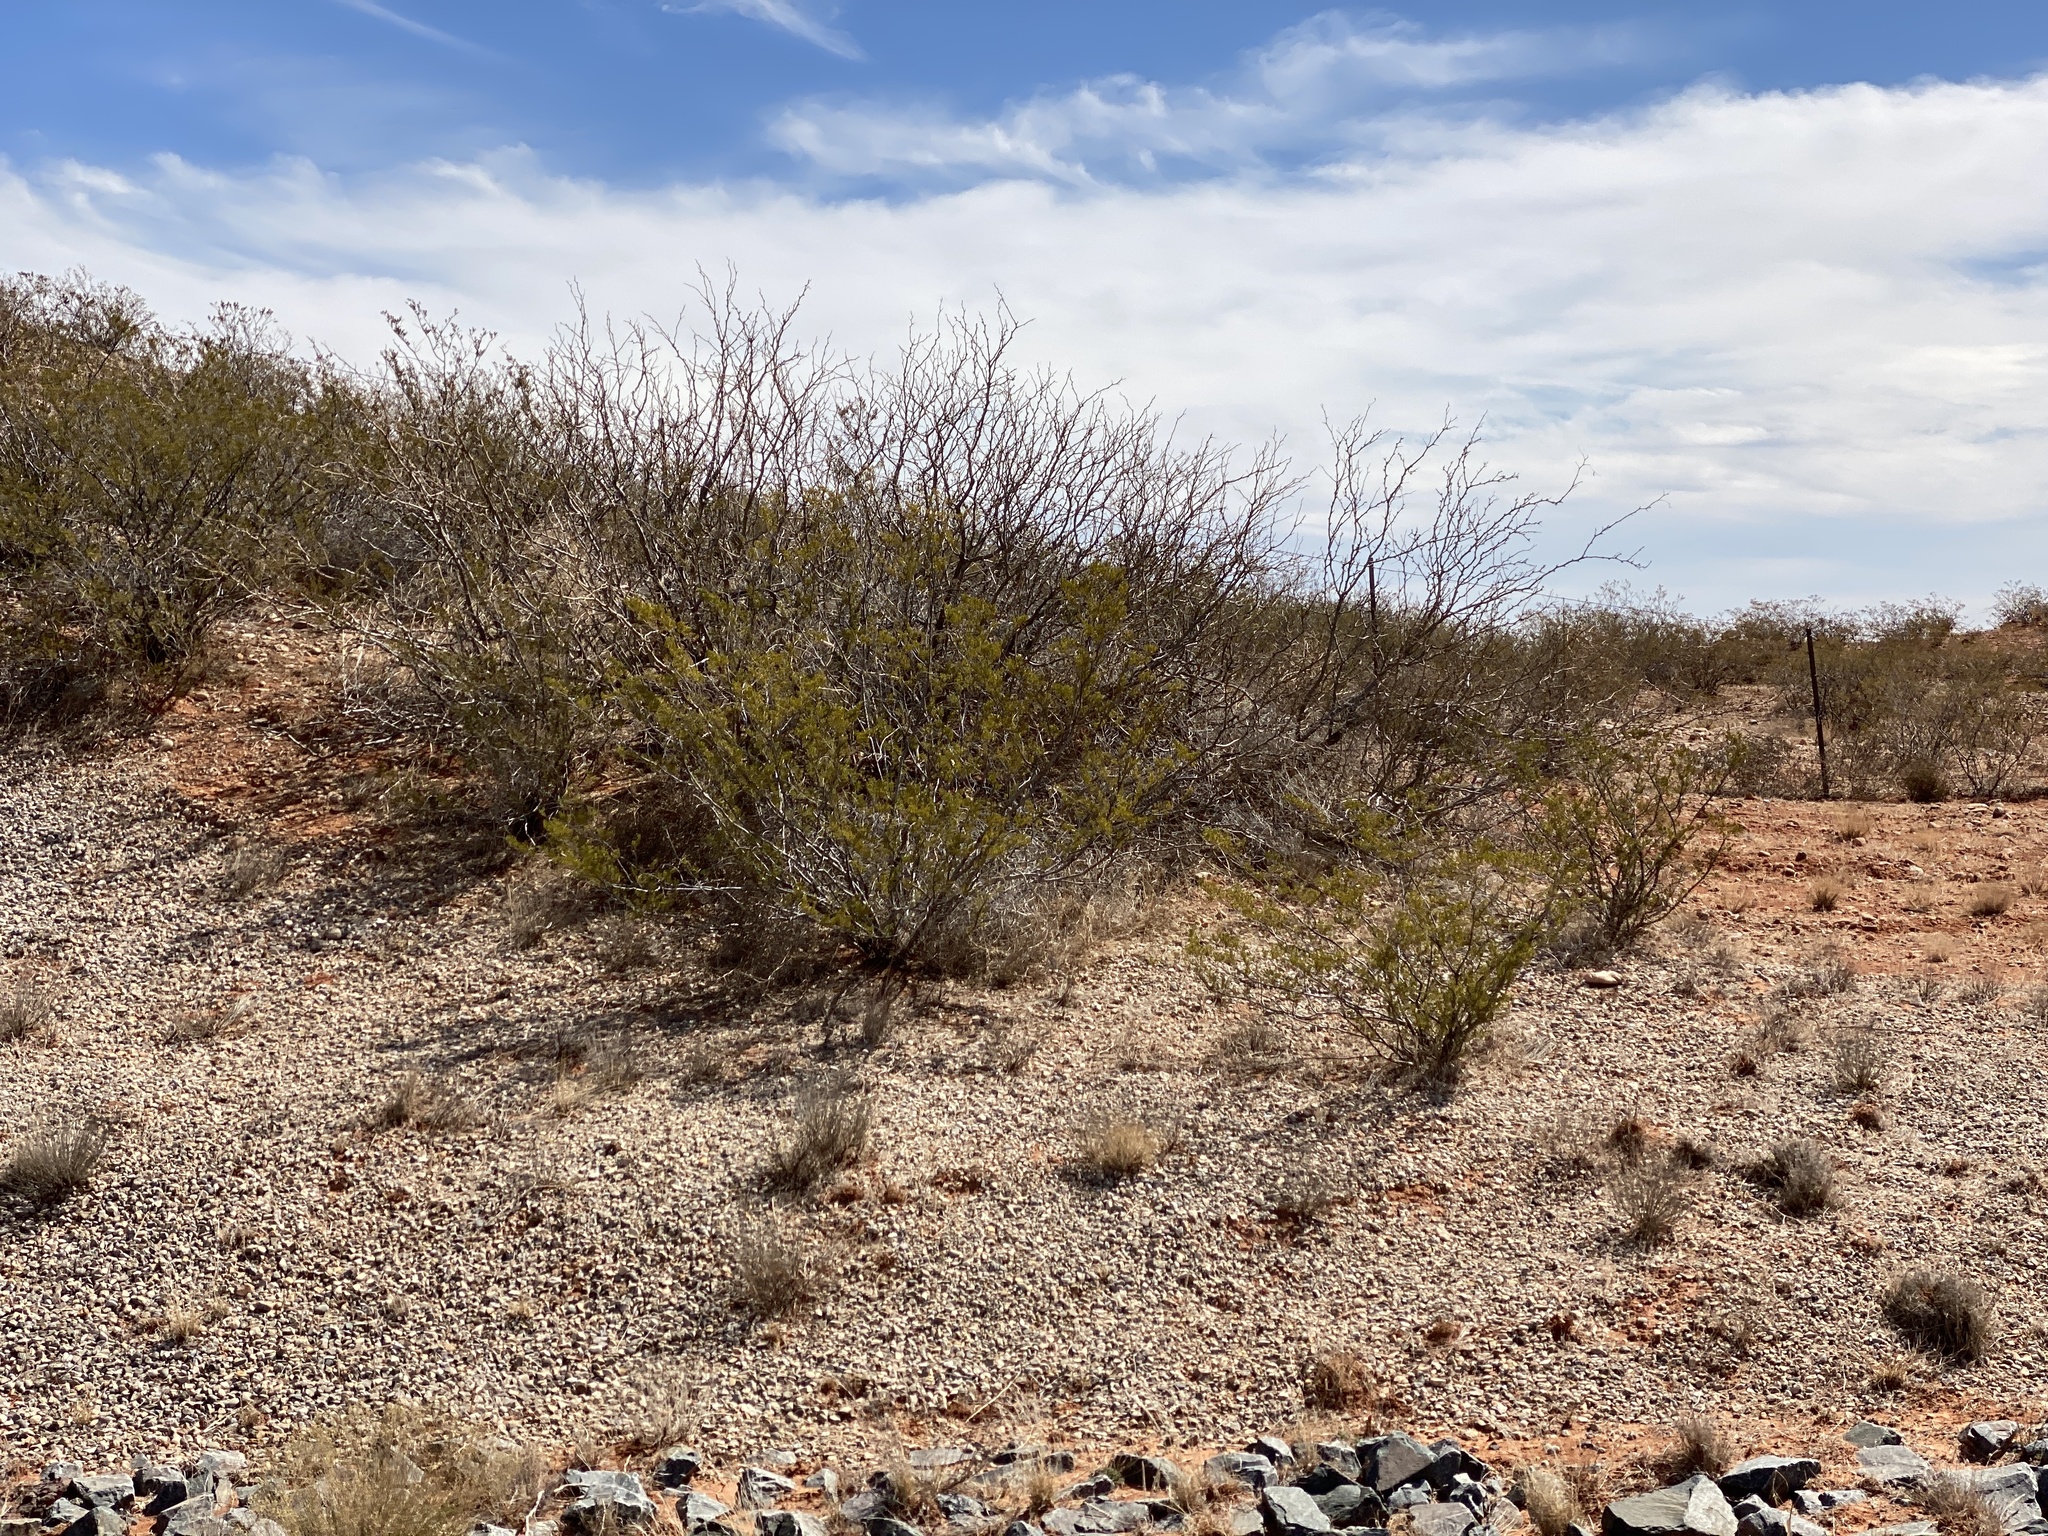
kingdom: Plantae
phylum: Tracheophyta
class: Magnoliopsida
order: Zygophyllales
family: Zygophyllaceae
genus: Larrea
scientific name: Larrea tridentata
